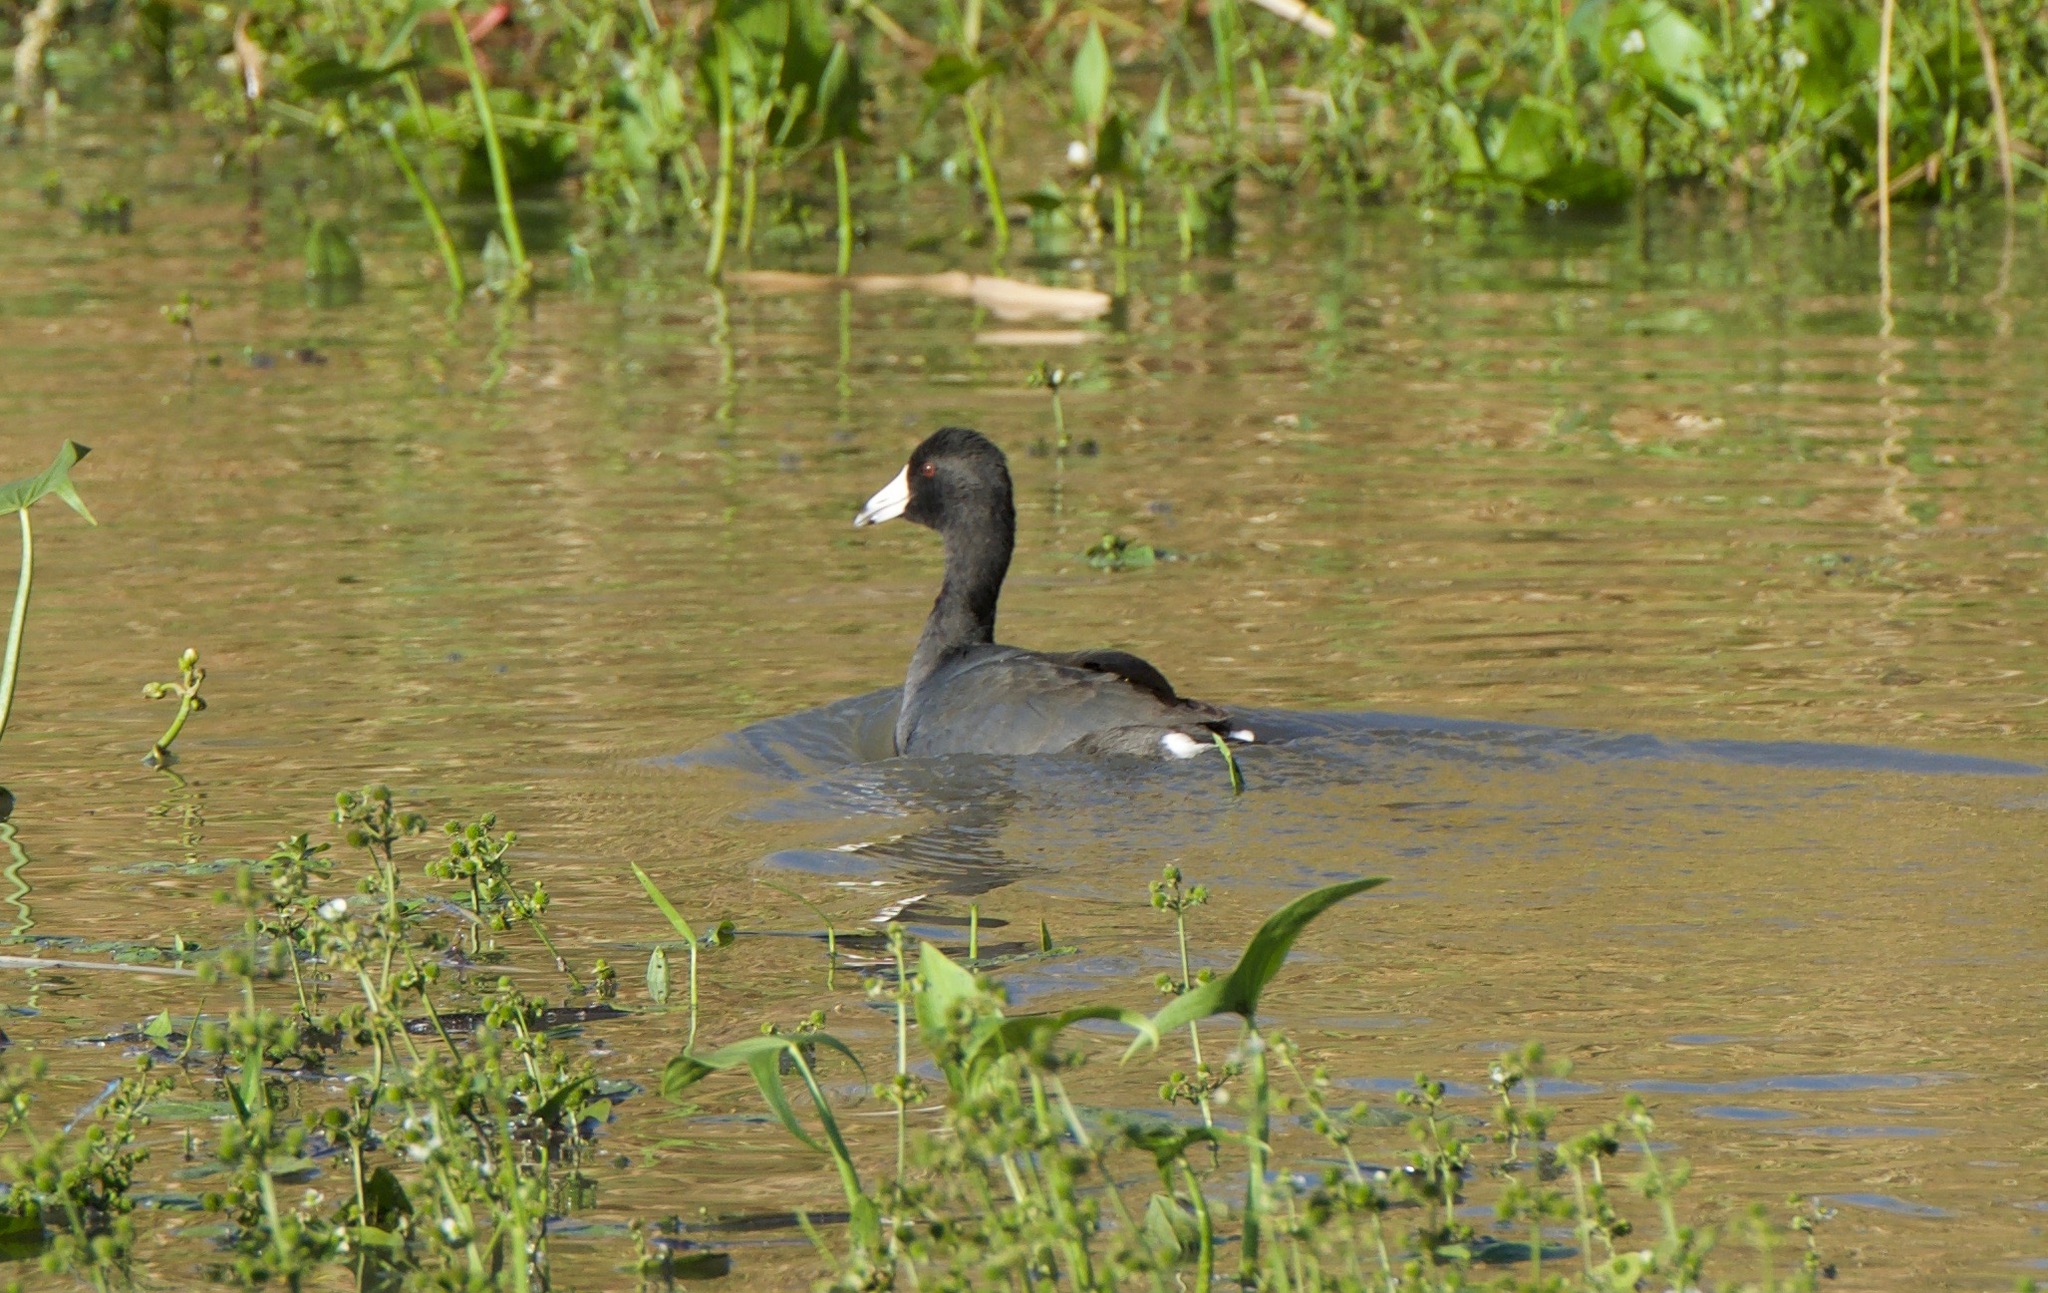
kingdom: Animalia
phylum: Chordata
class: Aves
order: Gruiformes
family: Rallidae
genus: Fulica
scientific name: Fulica americana
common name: American coot
